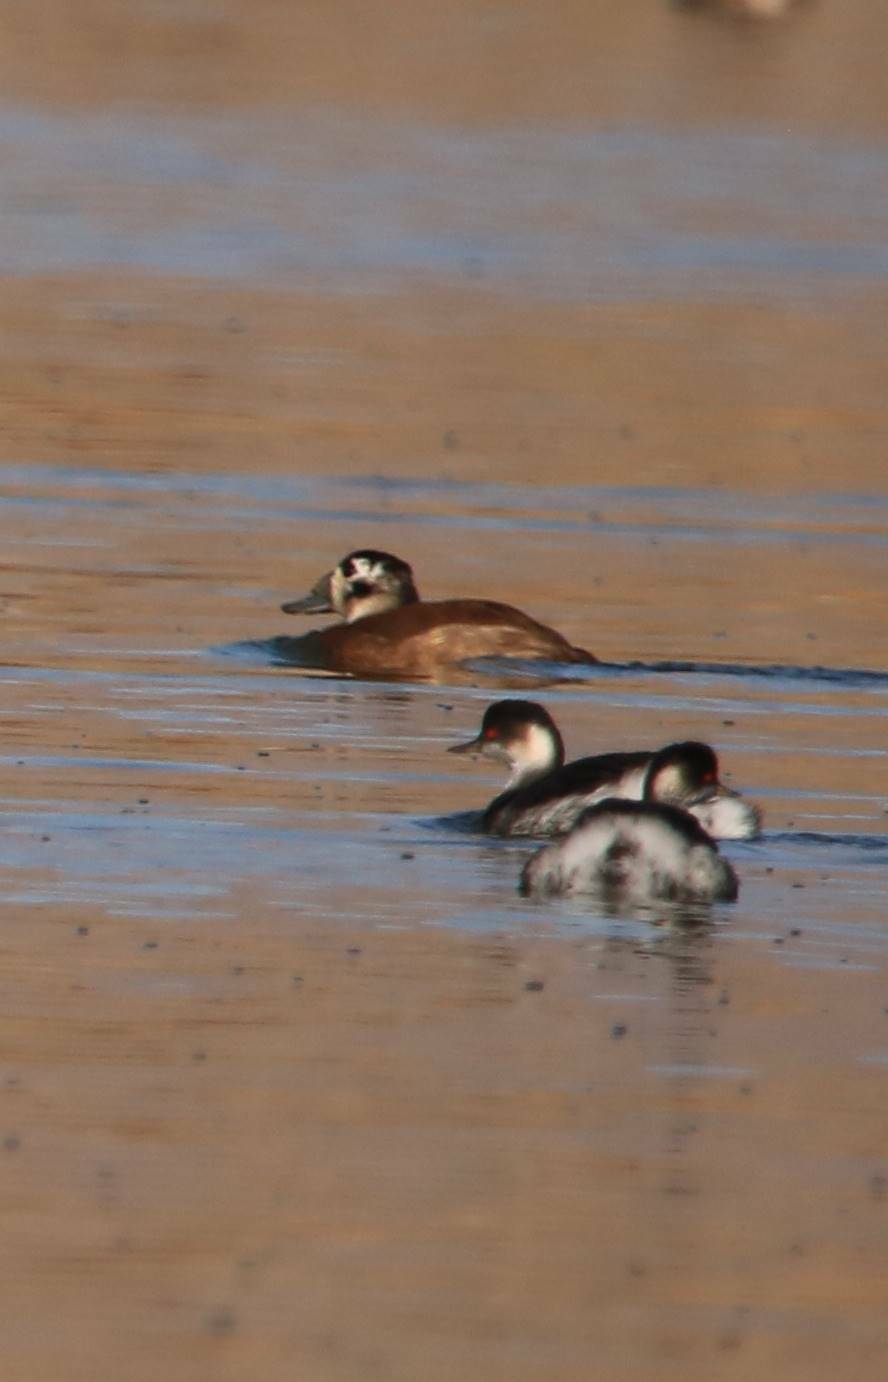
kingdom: Animalia
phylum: Chordata
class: Aves
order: Anseriformes
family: Anatidae
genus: Oxyura
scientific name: Oxyura leucocephala
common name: White-headed duck
